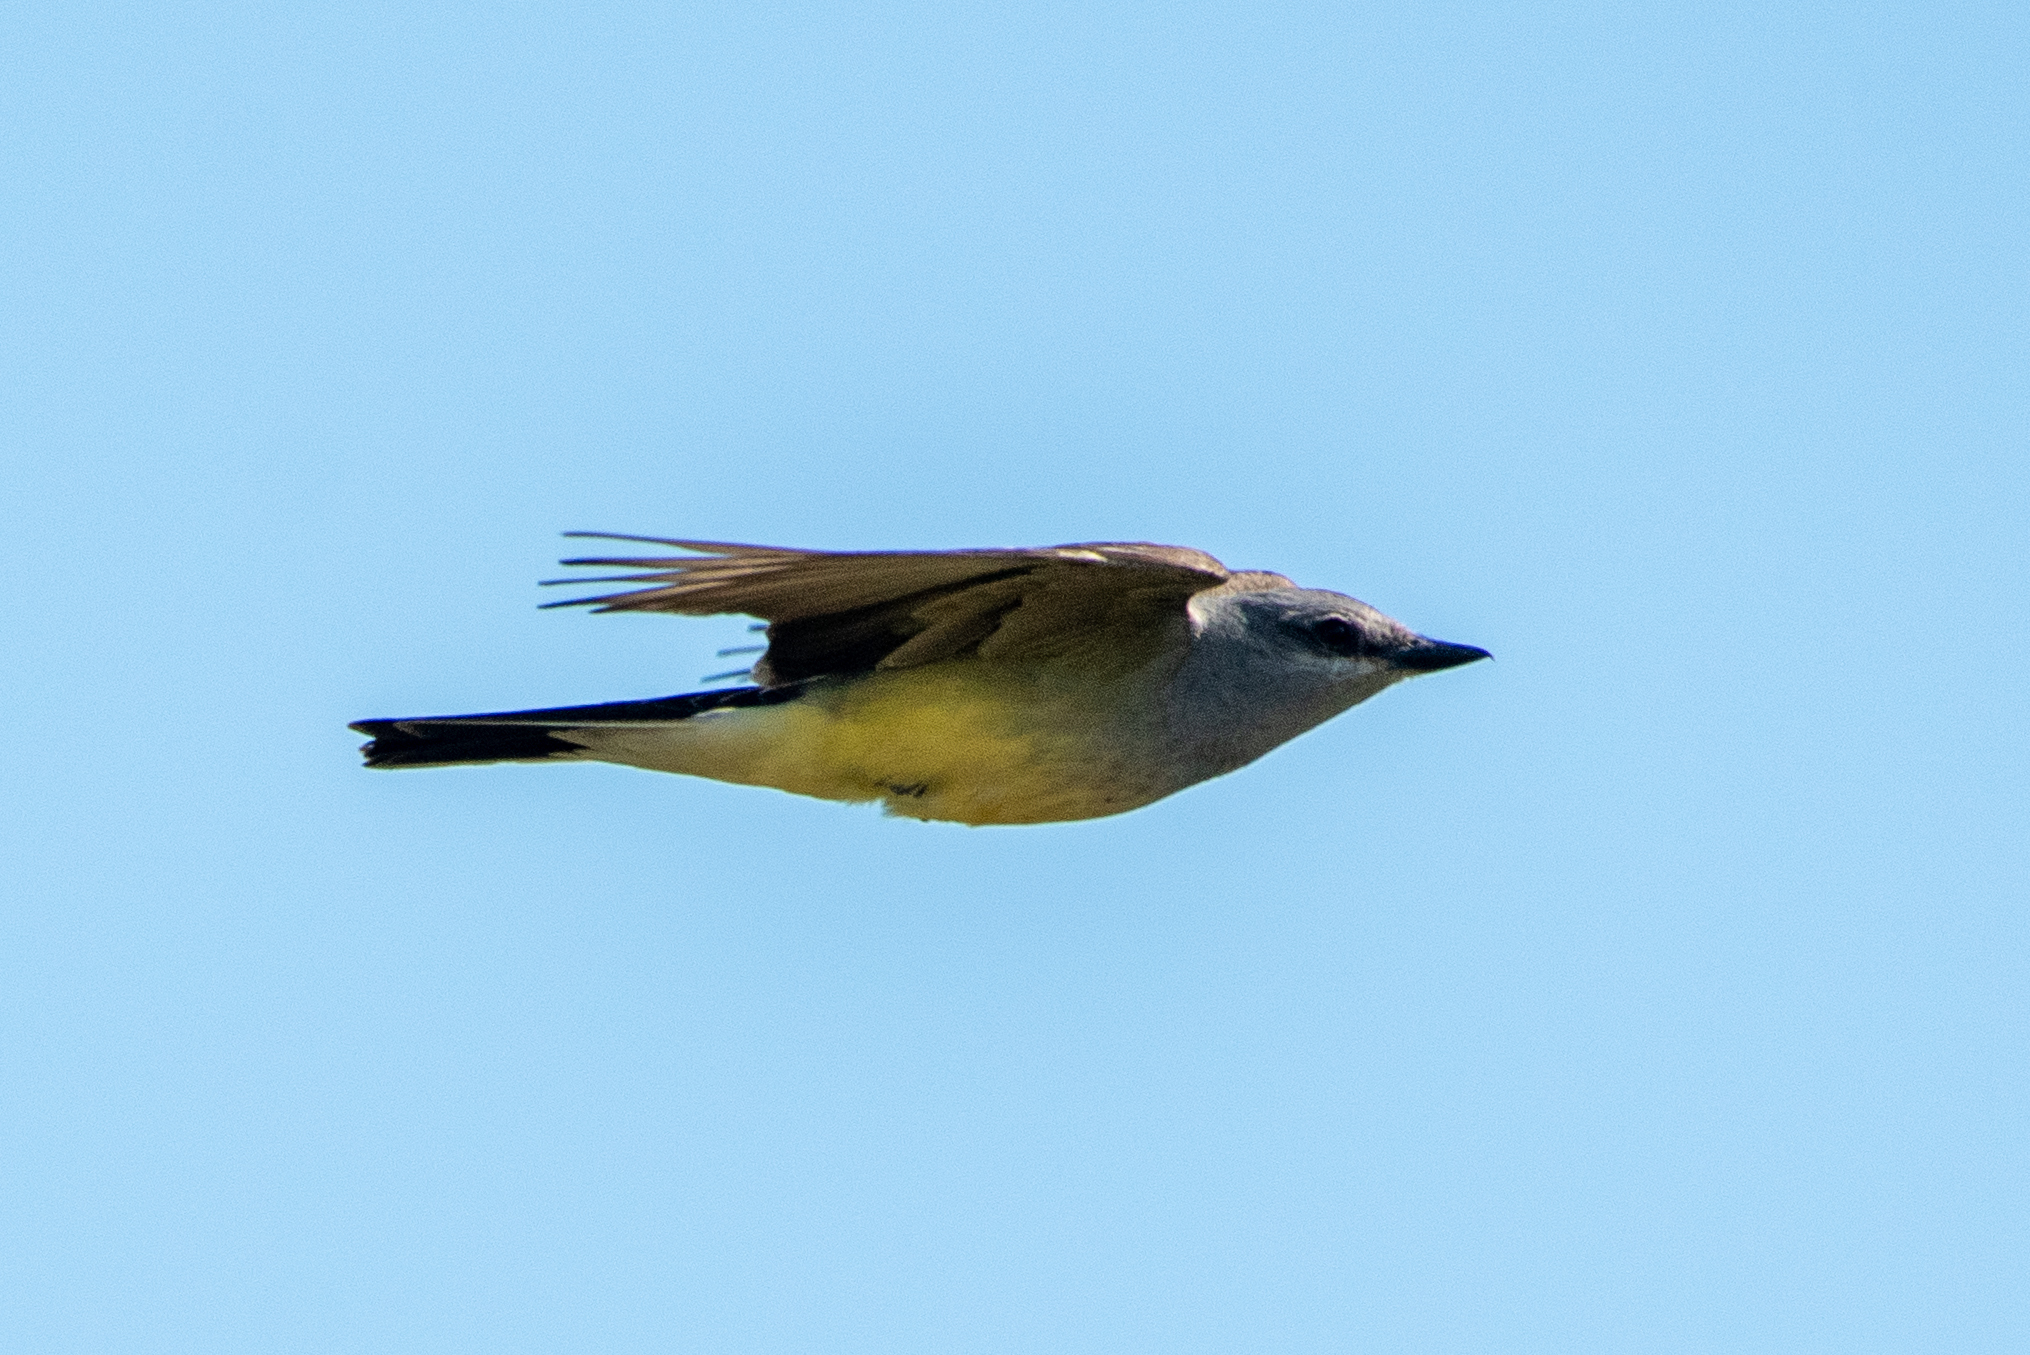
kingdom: Animalia
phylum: Chordata
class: Aves
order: Passeriformes
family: Tyrannidae
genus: Tyrannus
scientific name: Tyrannus verticalis
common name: Western kingbird
